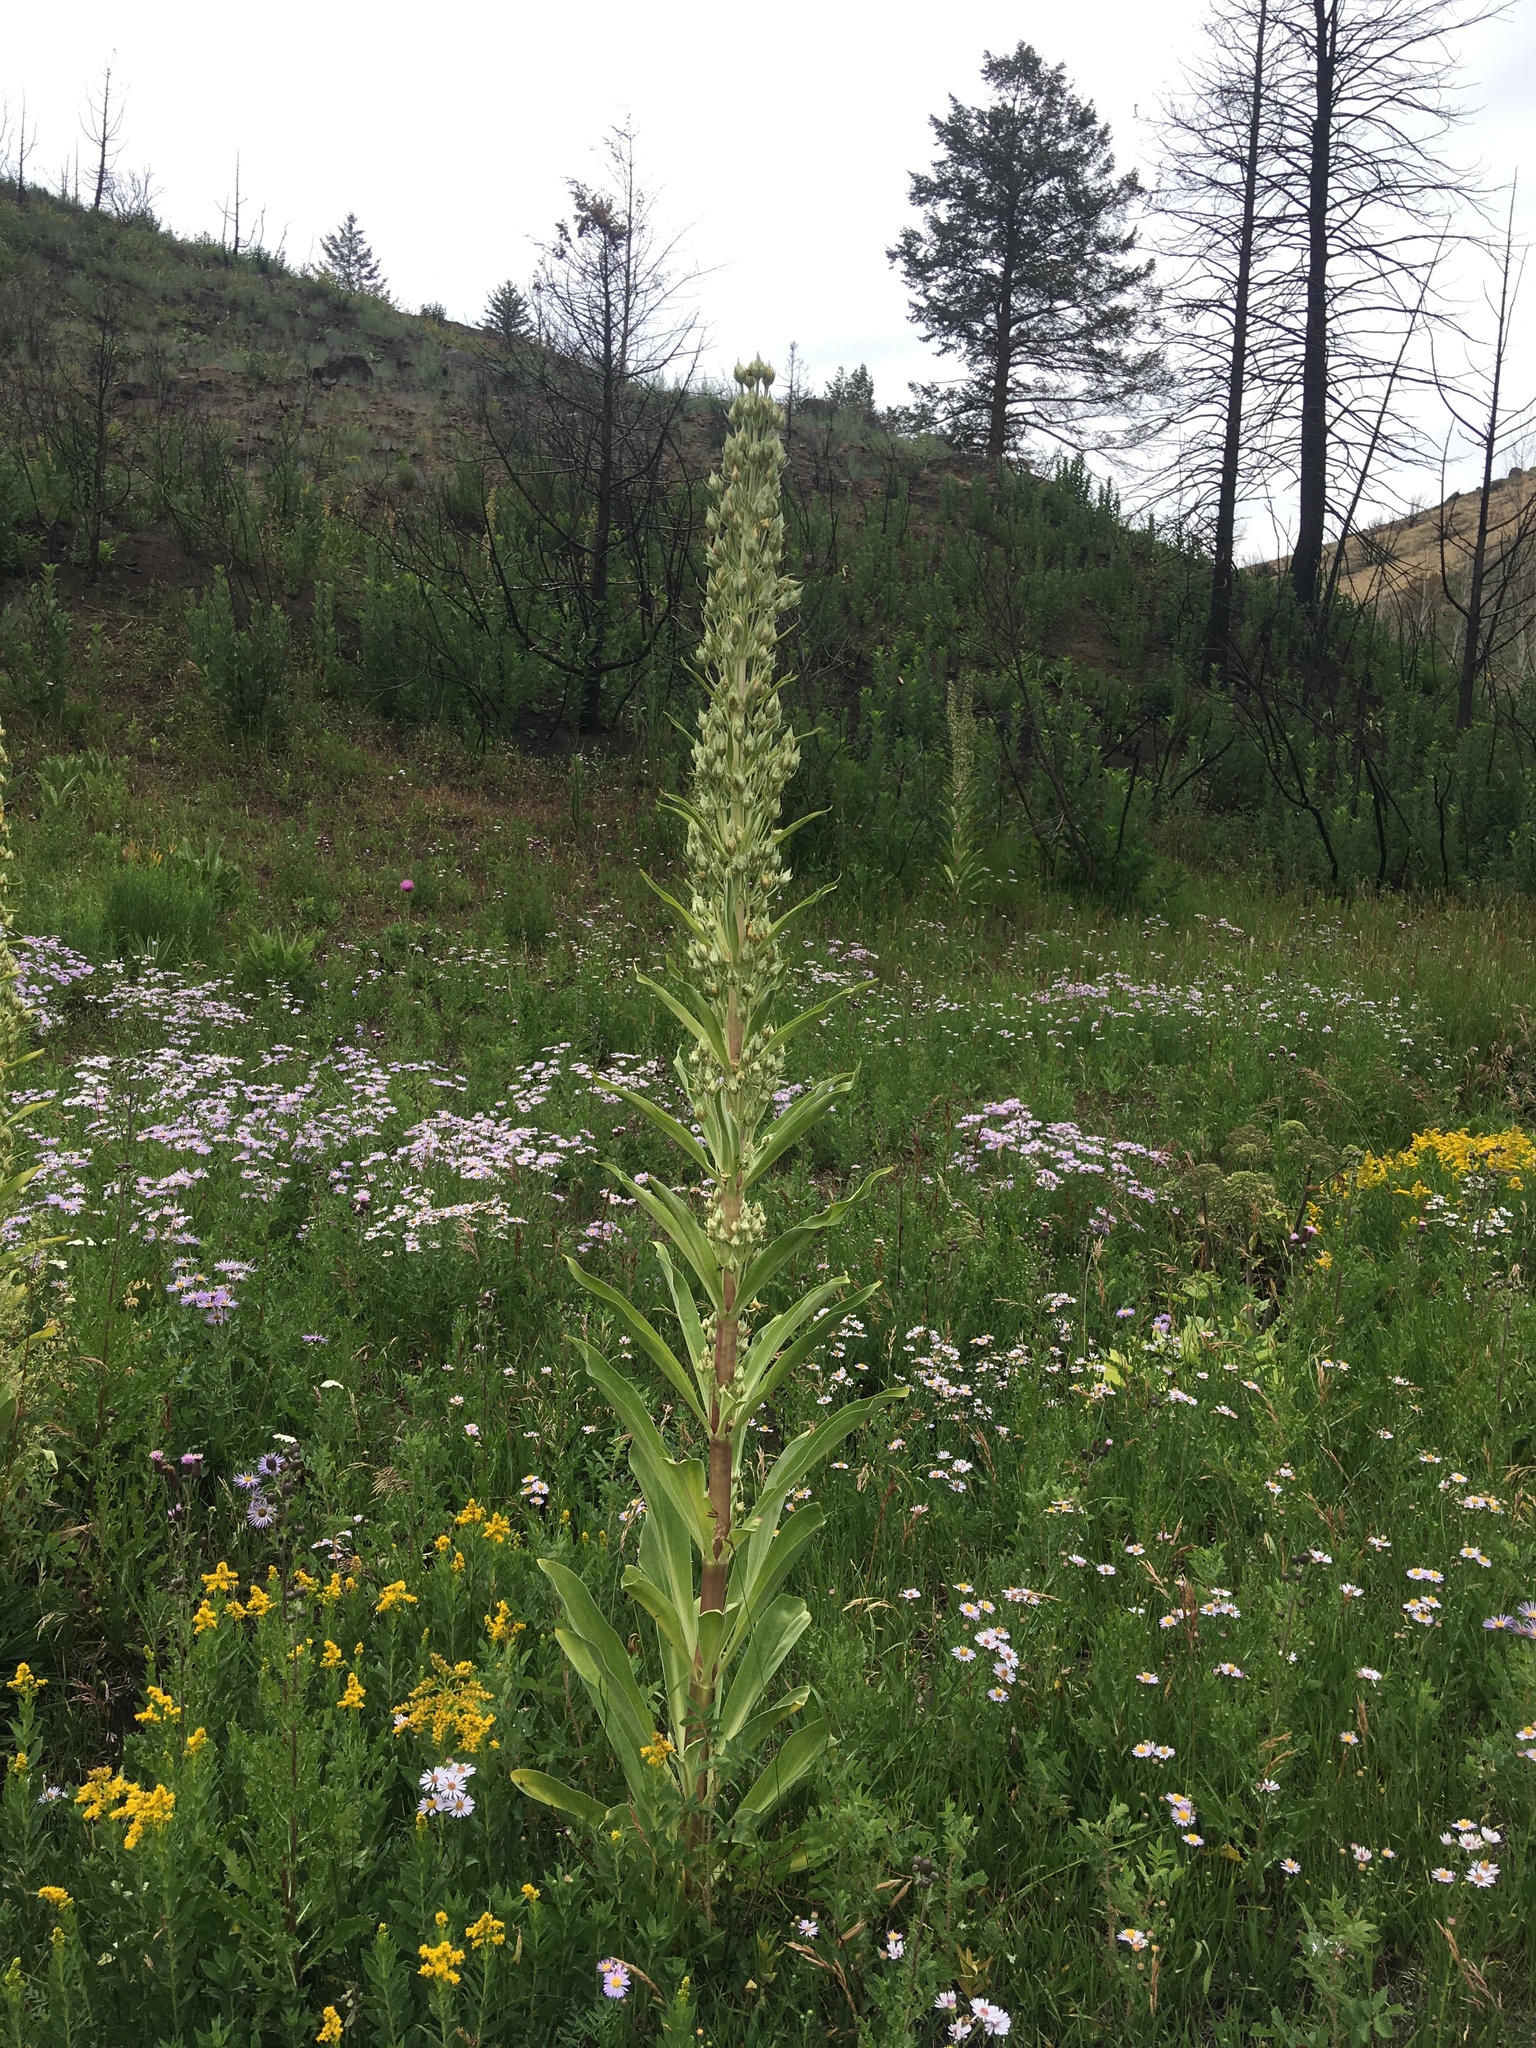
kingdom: Plantae
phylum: Tracheophyta
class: Magnoliopsida
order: Gentianales
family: Gentianaceae
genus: Frasera
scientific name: Frasera speciosa
